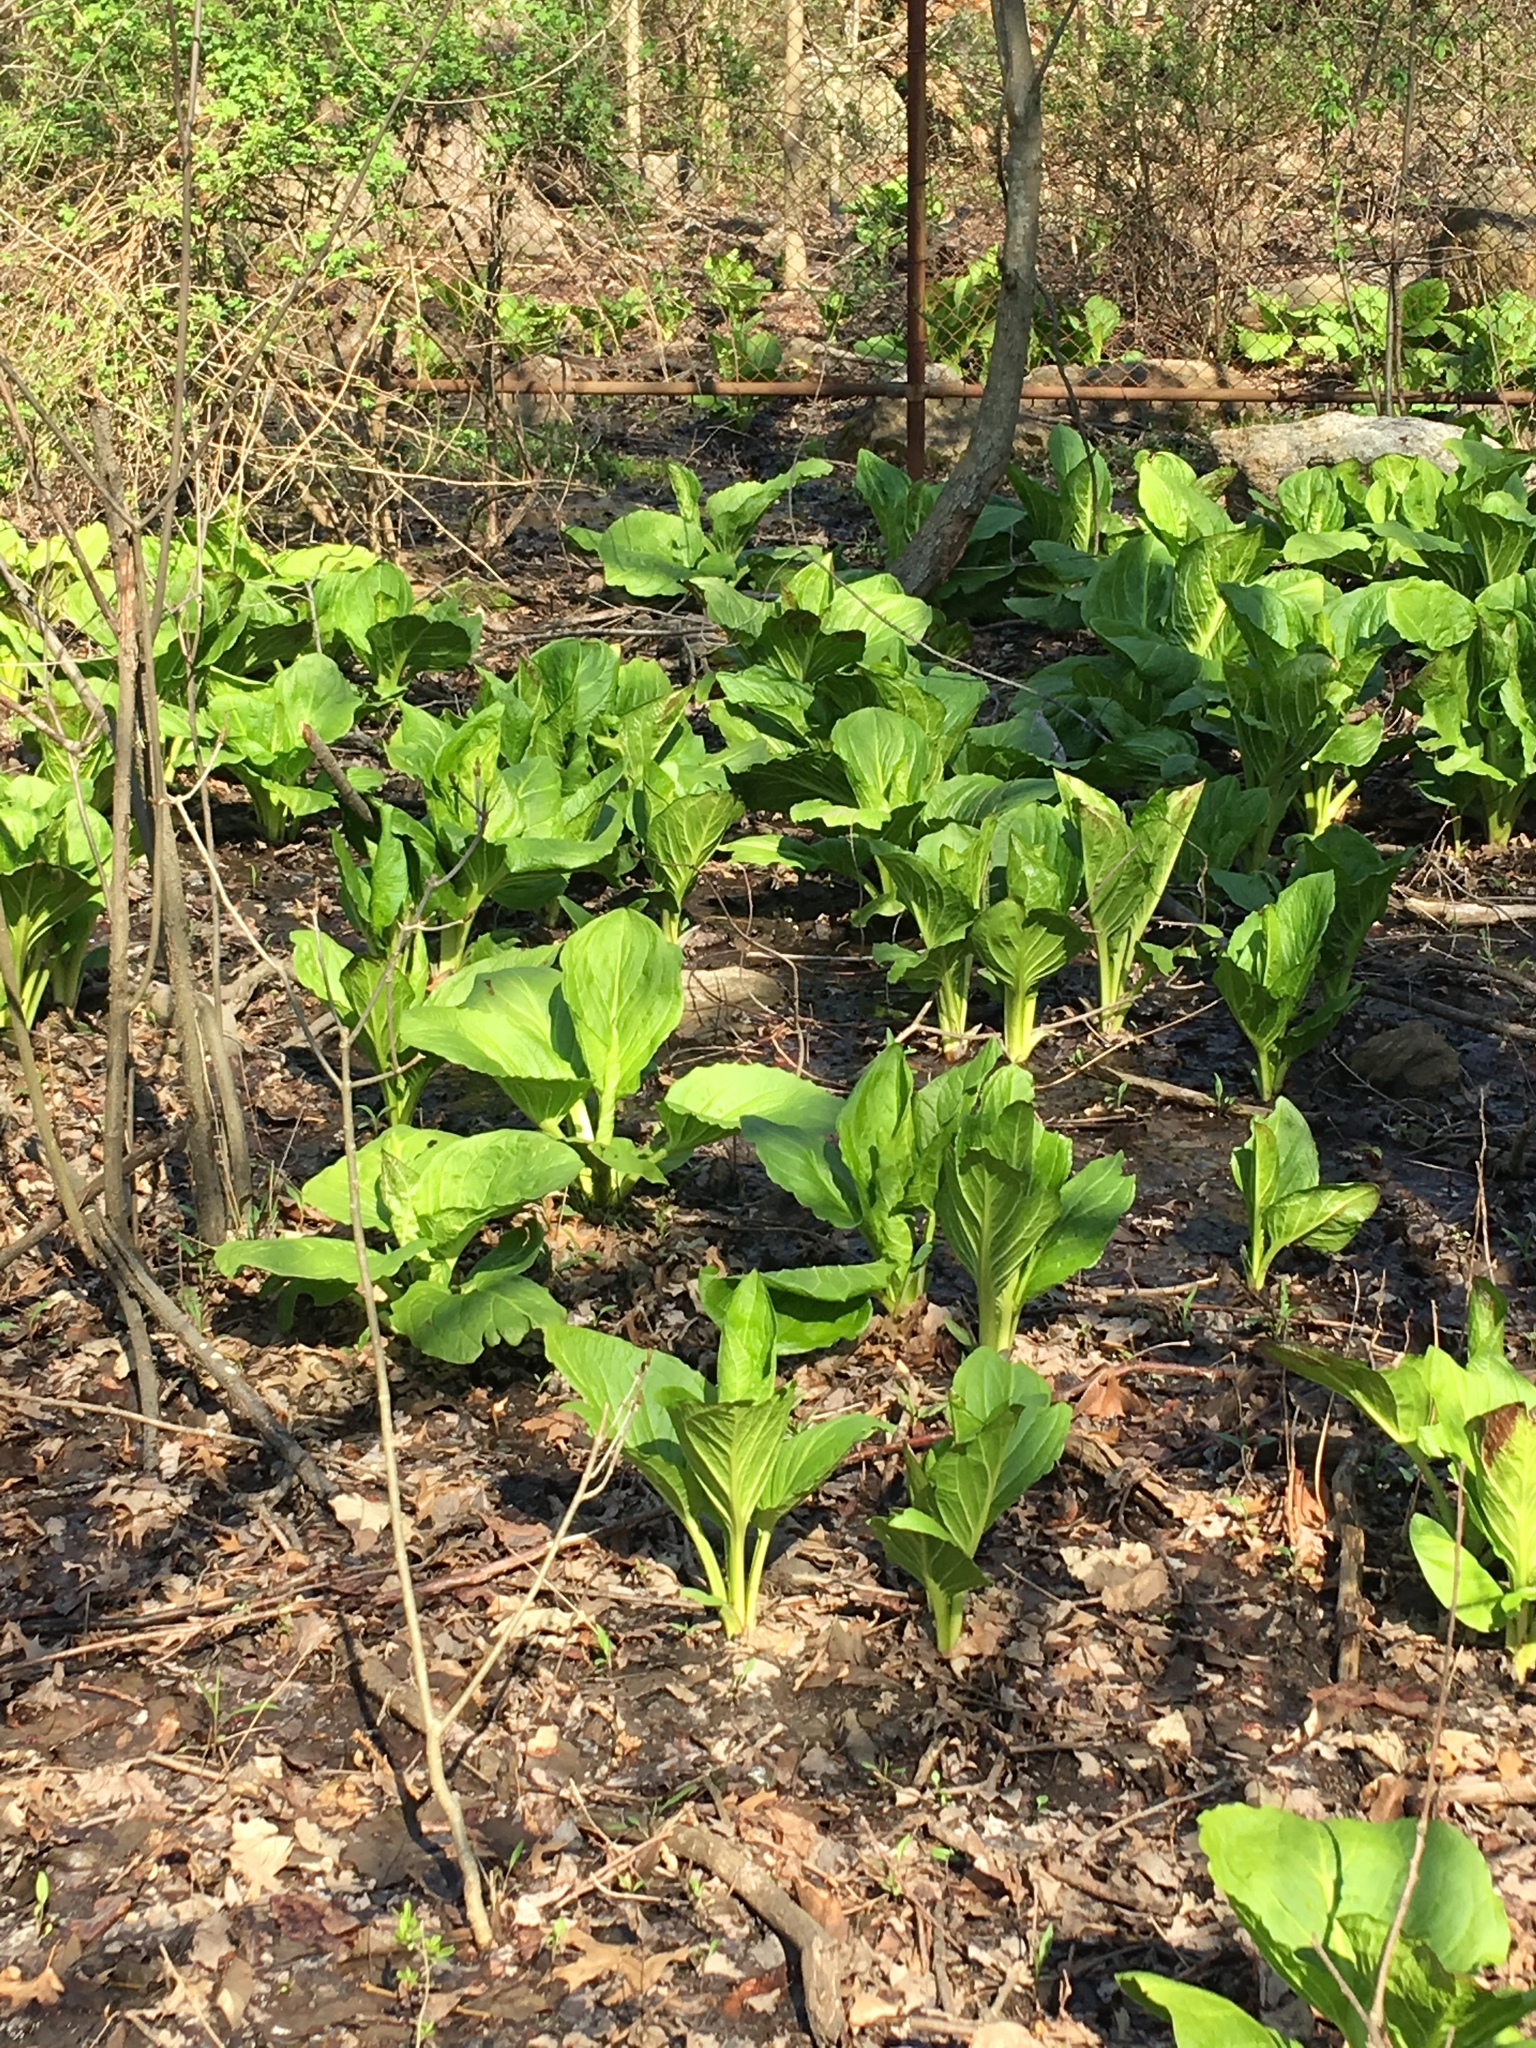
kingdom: Plantae
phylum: Tracheophyta
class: Liliopsida
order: Alismatales
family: Araceae
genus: Symplocarpus
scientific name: Symplocarpus foetidus
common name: Eastern skunk cabbage
